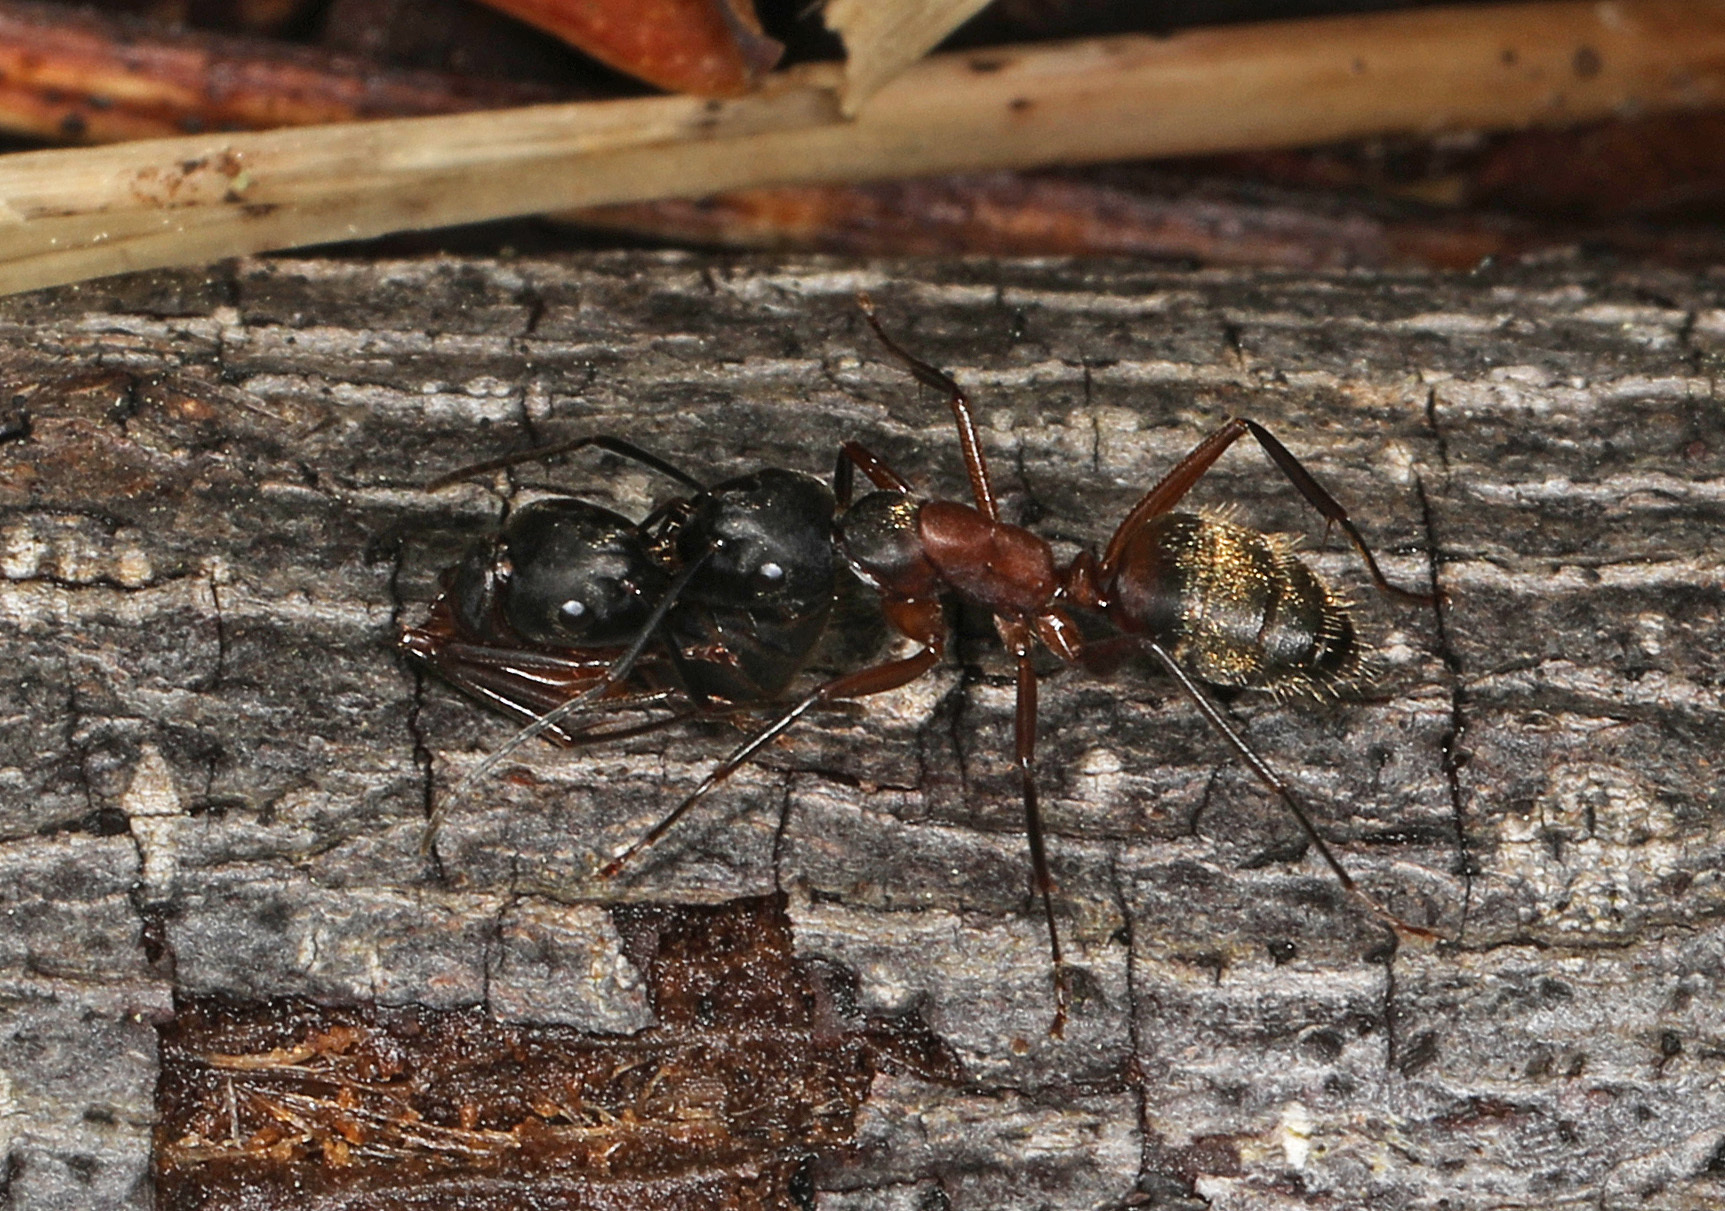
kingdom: Animalia
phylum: Arthropoda
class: Insecta
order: Hymenoptera
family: Formicidae
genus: Camponotus
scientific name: Camponotus chromaiodes
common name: Red carpenter ant
